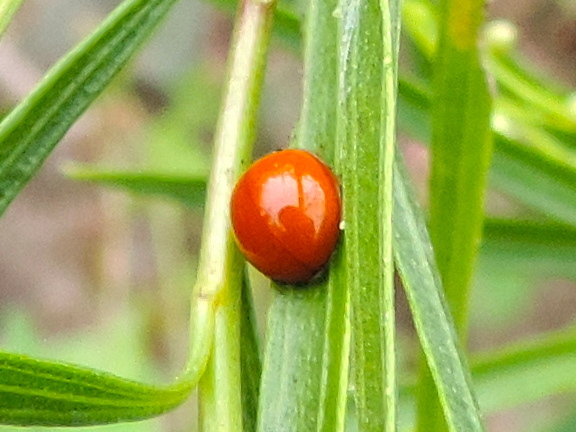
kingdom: Animalia
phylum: Arthropoda
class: Insecta
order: Coleoptera
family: Coccinellidae
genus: Cycloneda
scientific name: Cycloneda sanguinea
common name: Ladybird beetle
